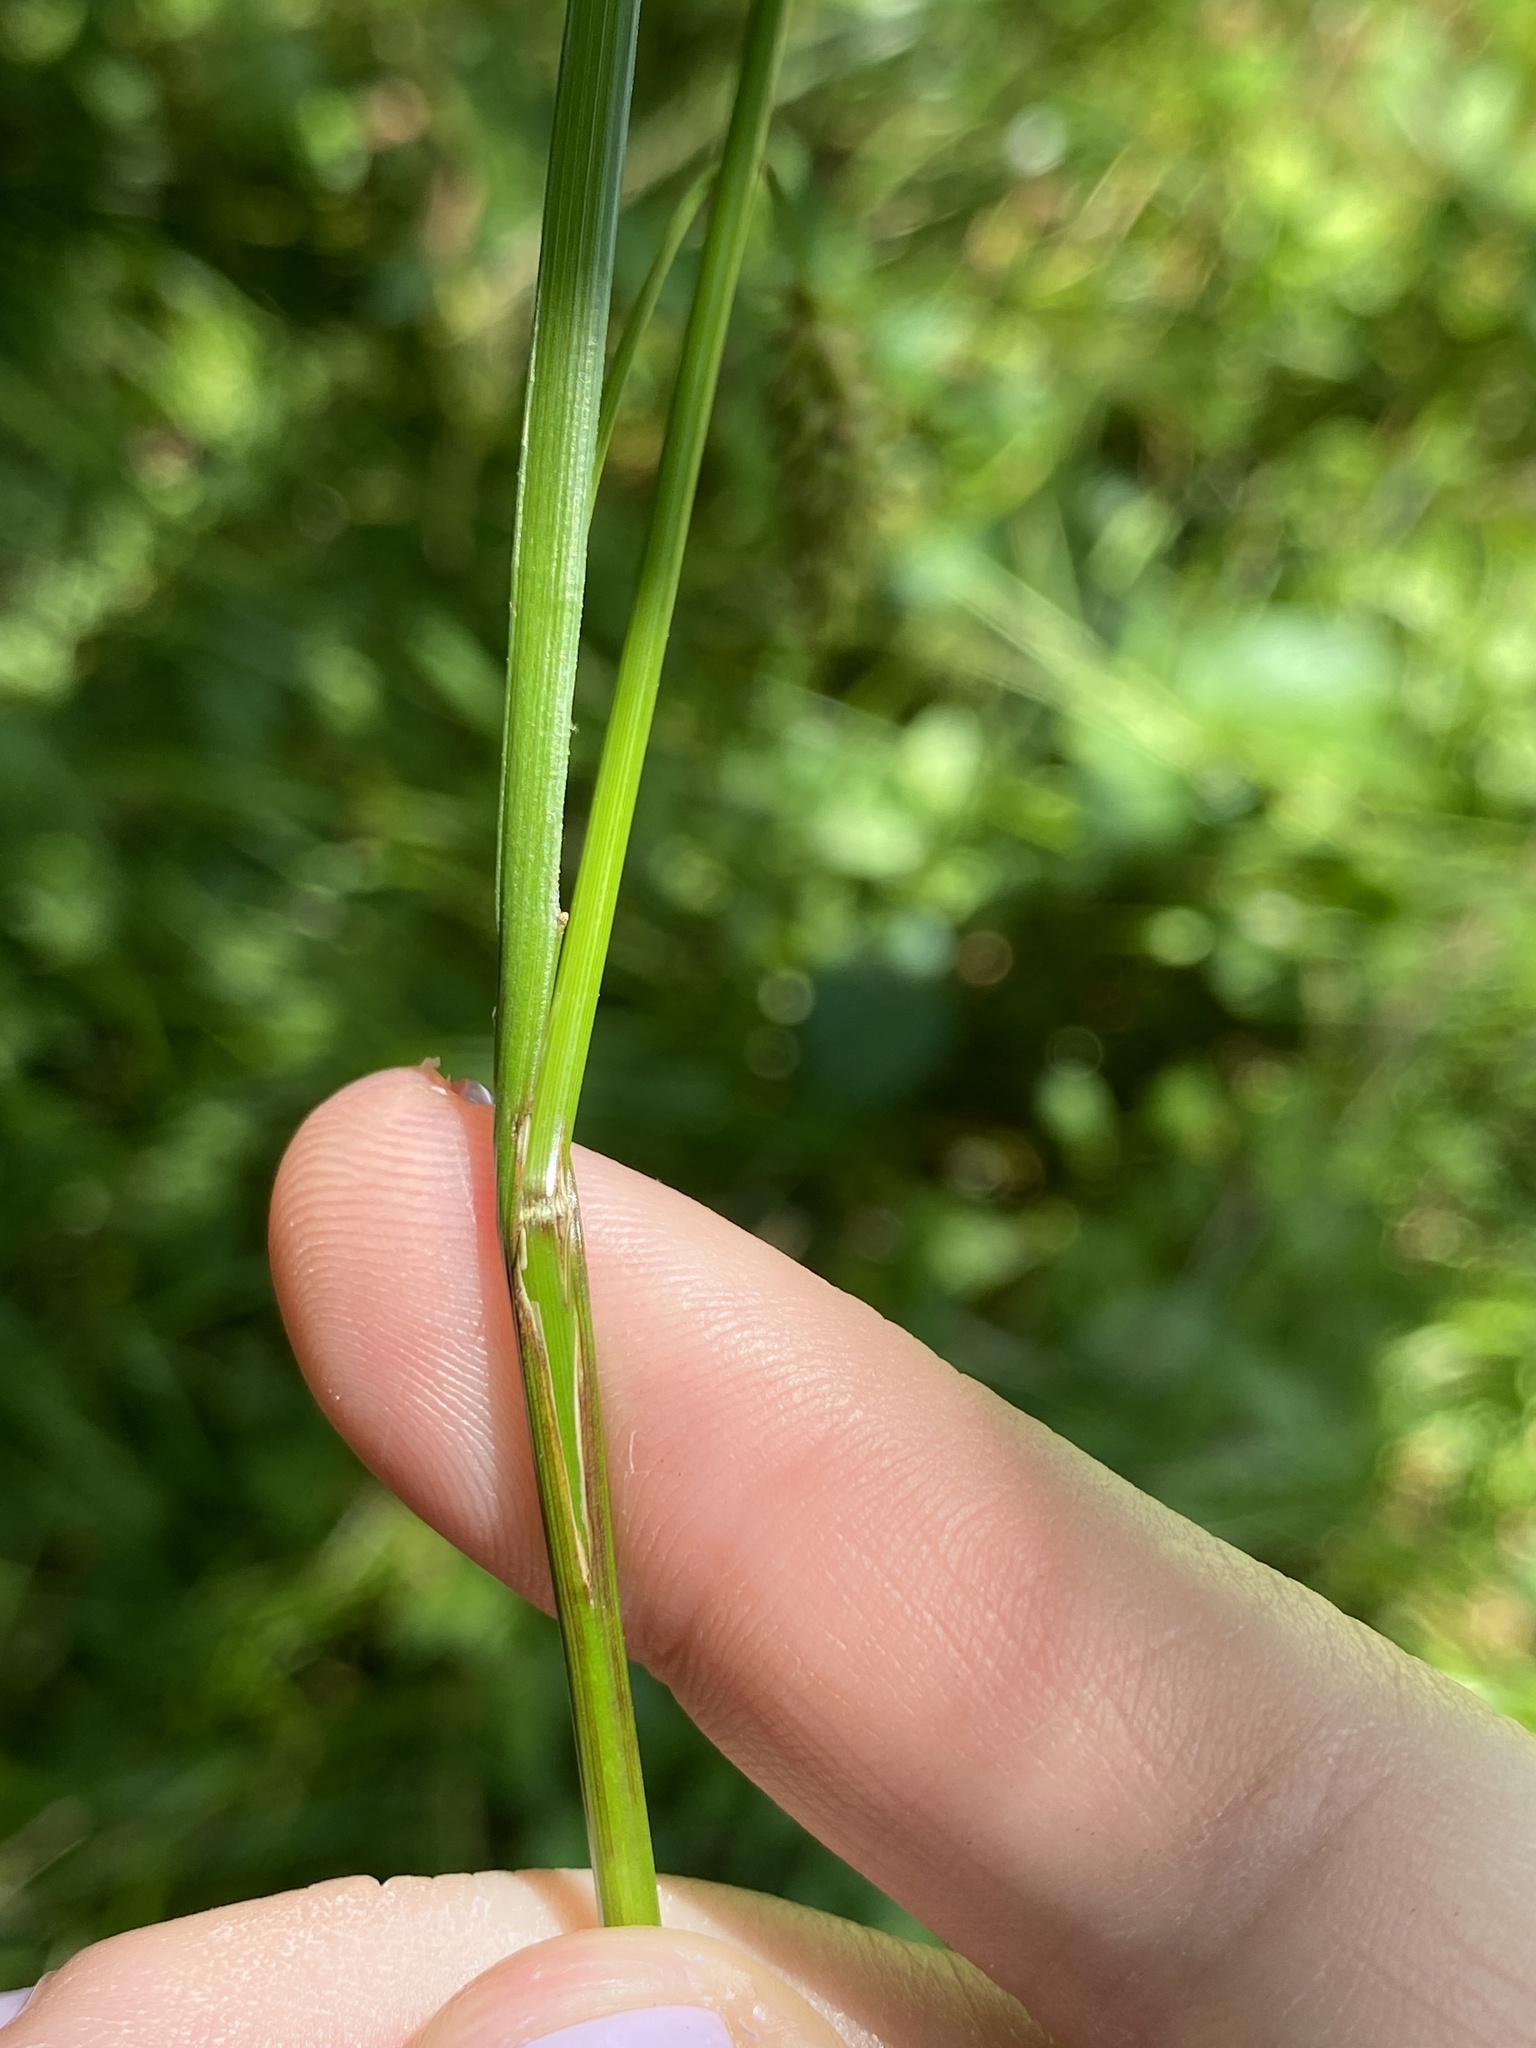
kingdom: Plantae
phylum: Tracheophyta
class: Liliopsida
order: Poales
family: Cyperaceae
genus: Carex
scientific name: Carex cherokeensis
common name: Cherokee sedge
